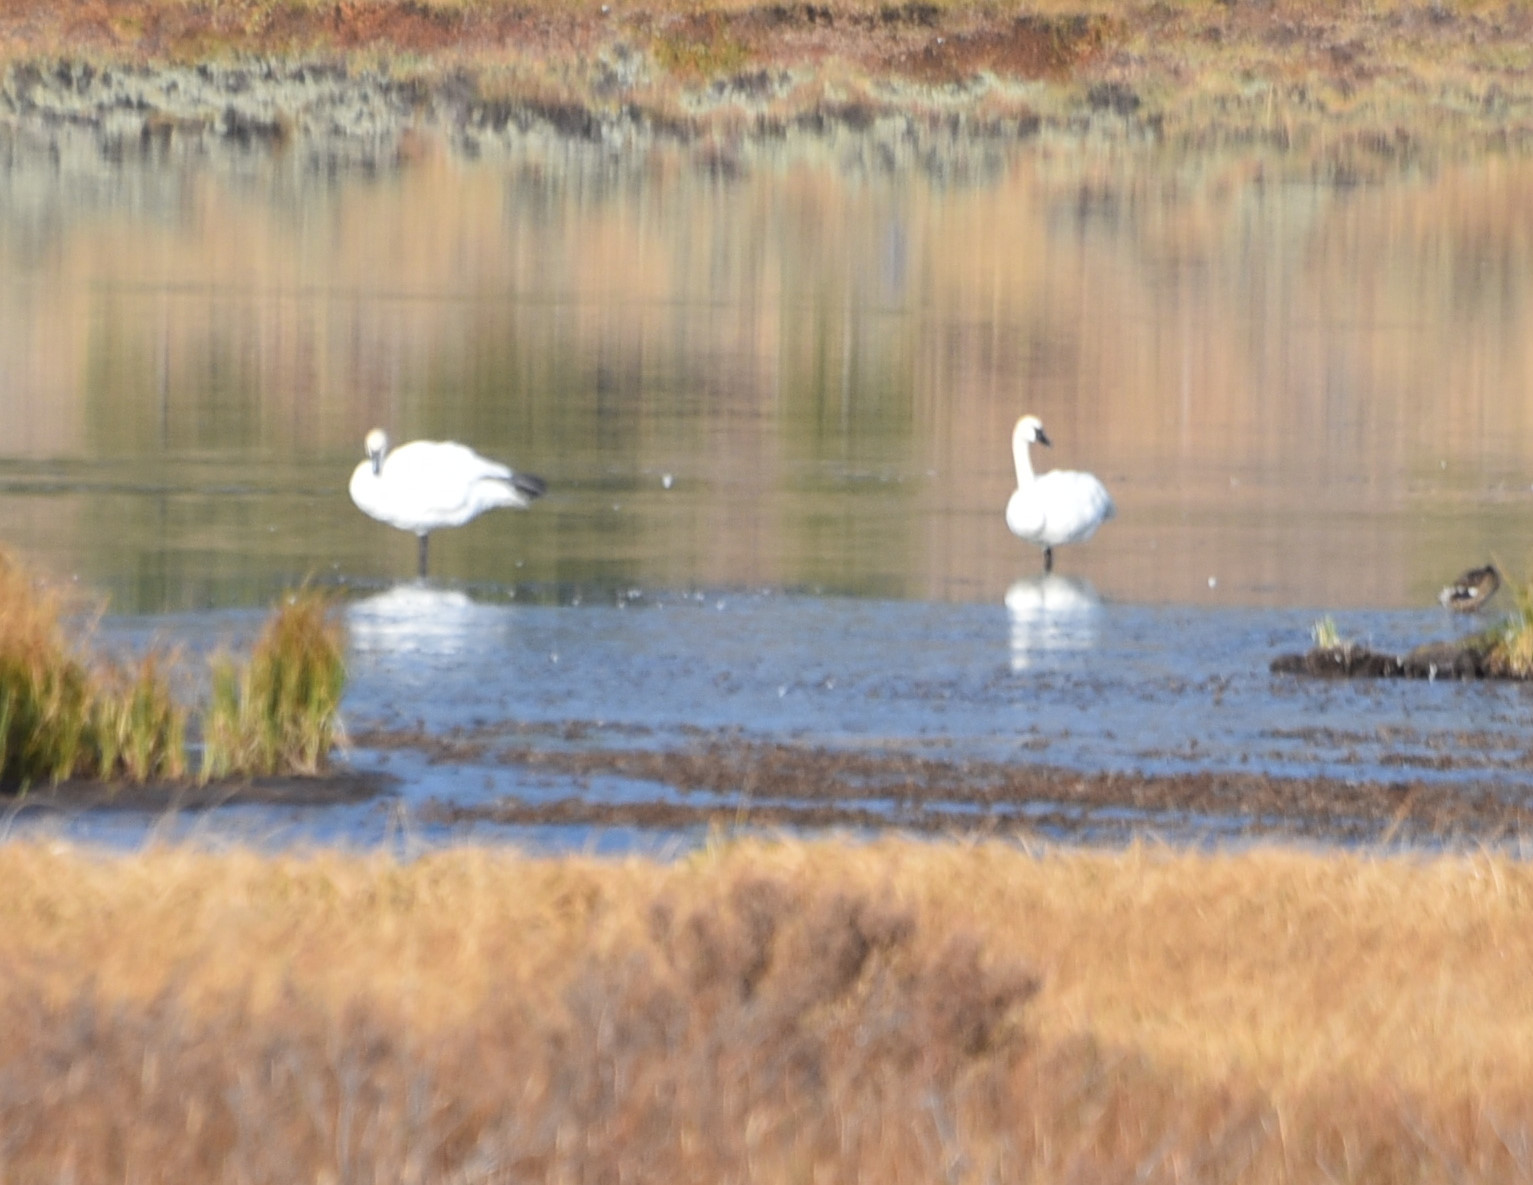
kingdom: Animalia
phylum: Chordata
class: Aves
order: Anseriformes
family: Anatidae
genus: Cygnus
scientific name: Cygnus buccinator
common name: Trumpeter swan
